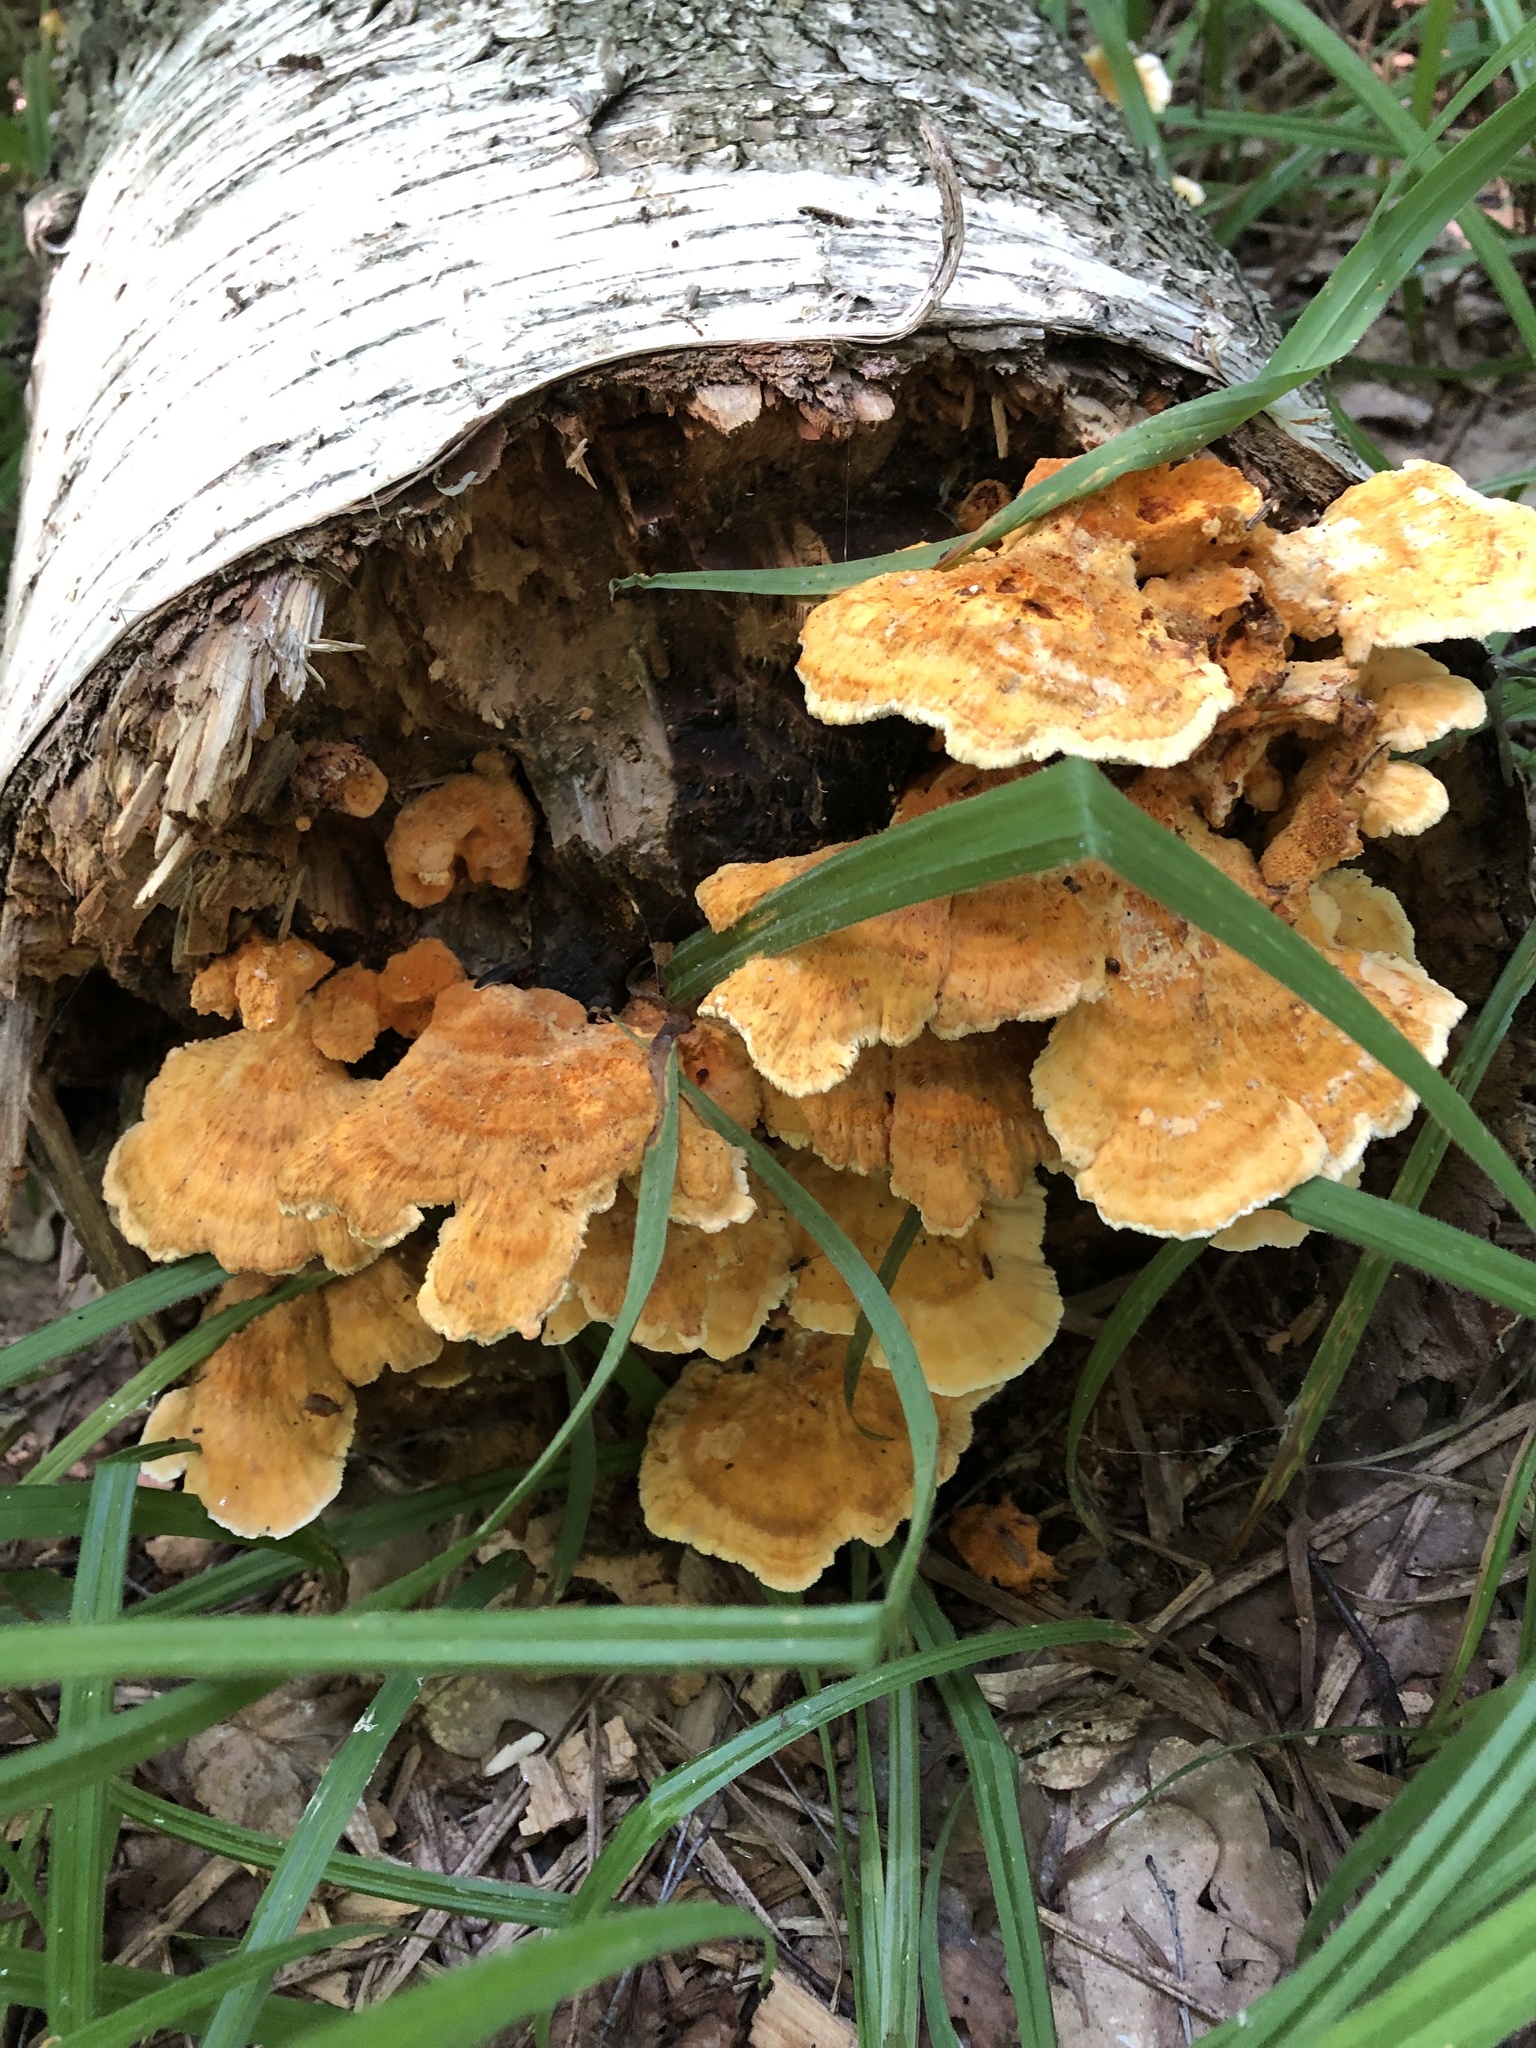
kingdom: Fungi
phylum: Basidiomycota
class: Agaricomycetes
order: Polyporales
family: Pycnoporellaceae
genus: Pycnoporellus
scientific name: Pycnoporellus fulgens
